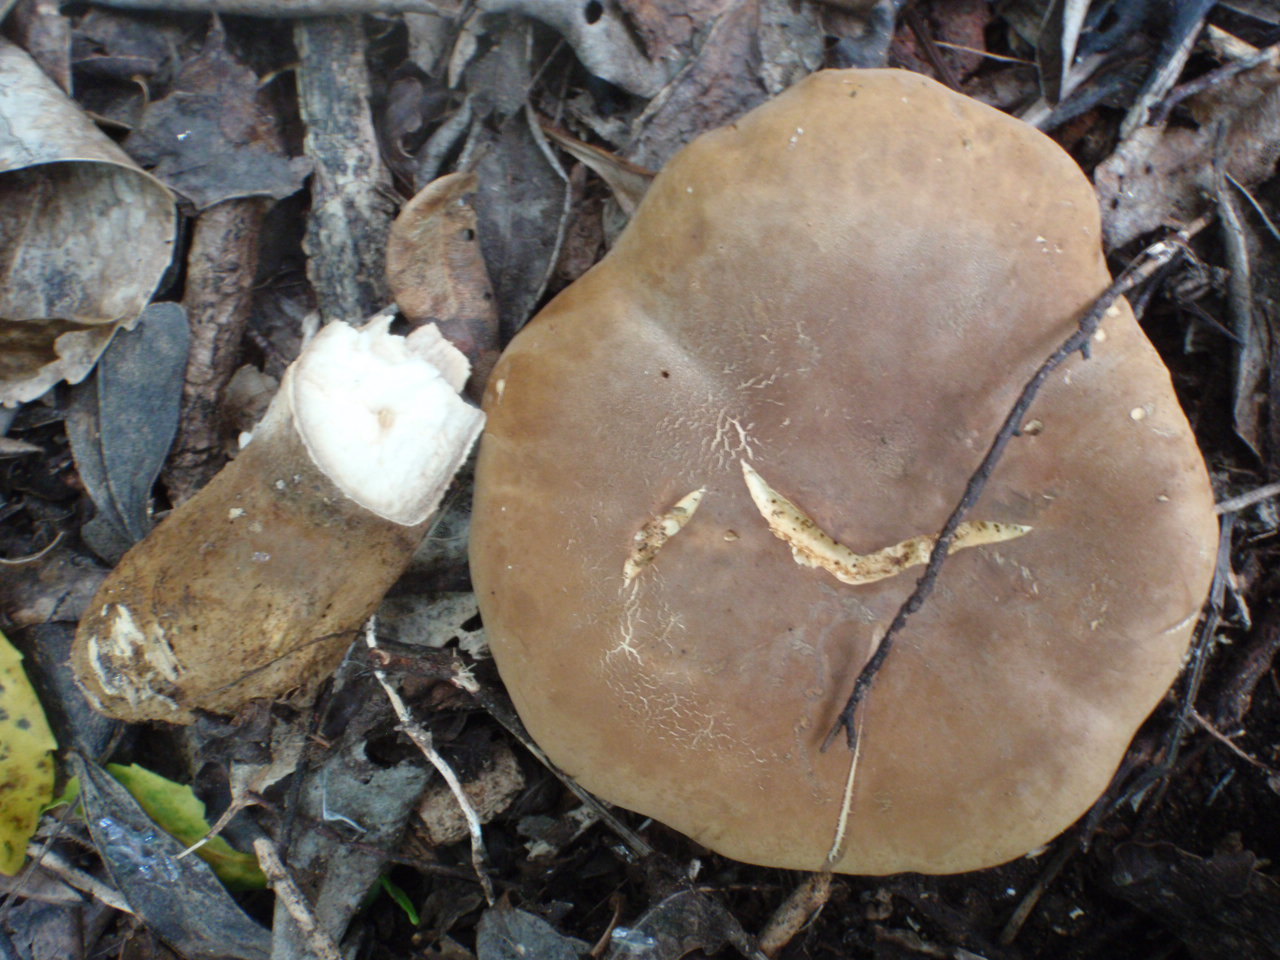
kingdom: Fungi
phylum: Basidiomycota
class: Agaricomycetes
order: Boletales
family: Tapinellaceae
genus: Tapinella
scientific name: Tapinella atrotomentosa
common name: Velvet rollrim
